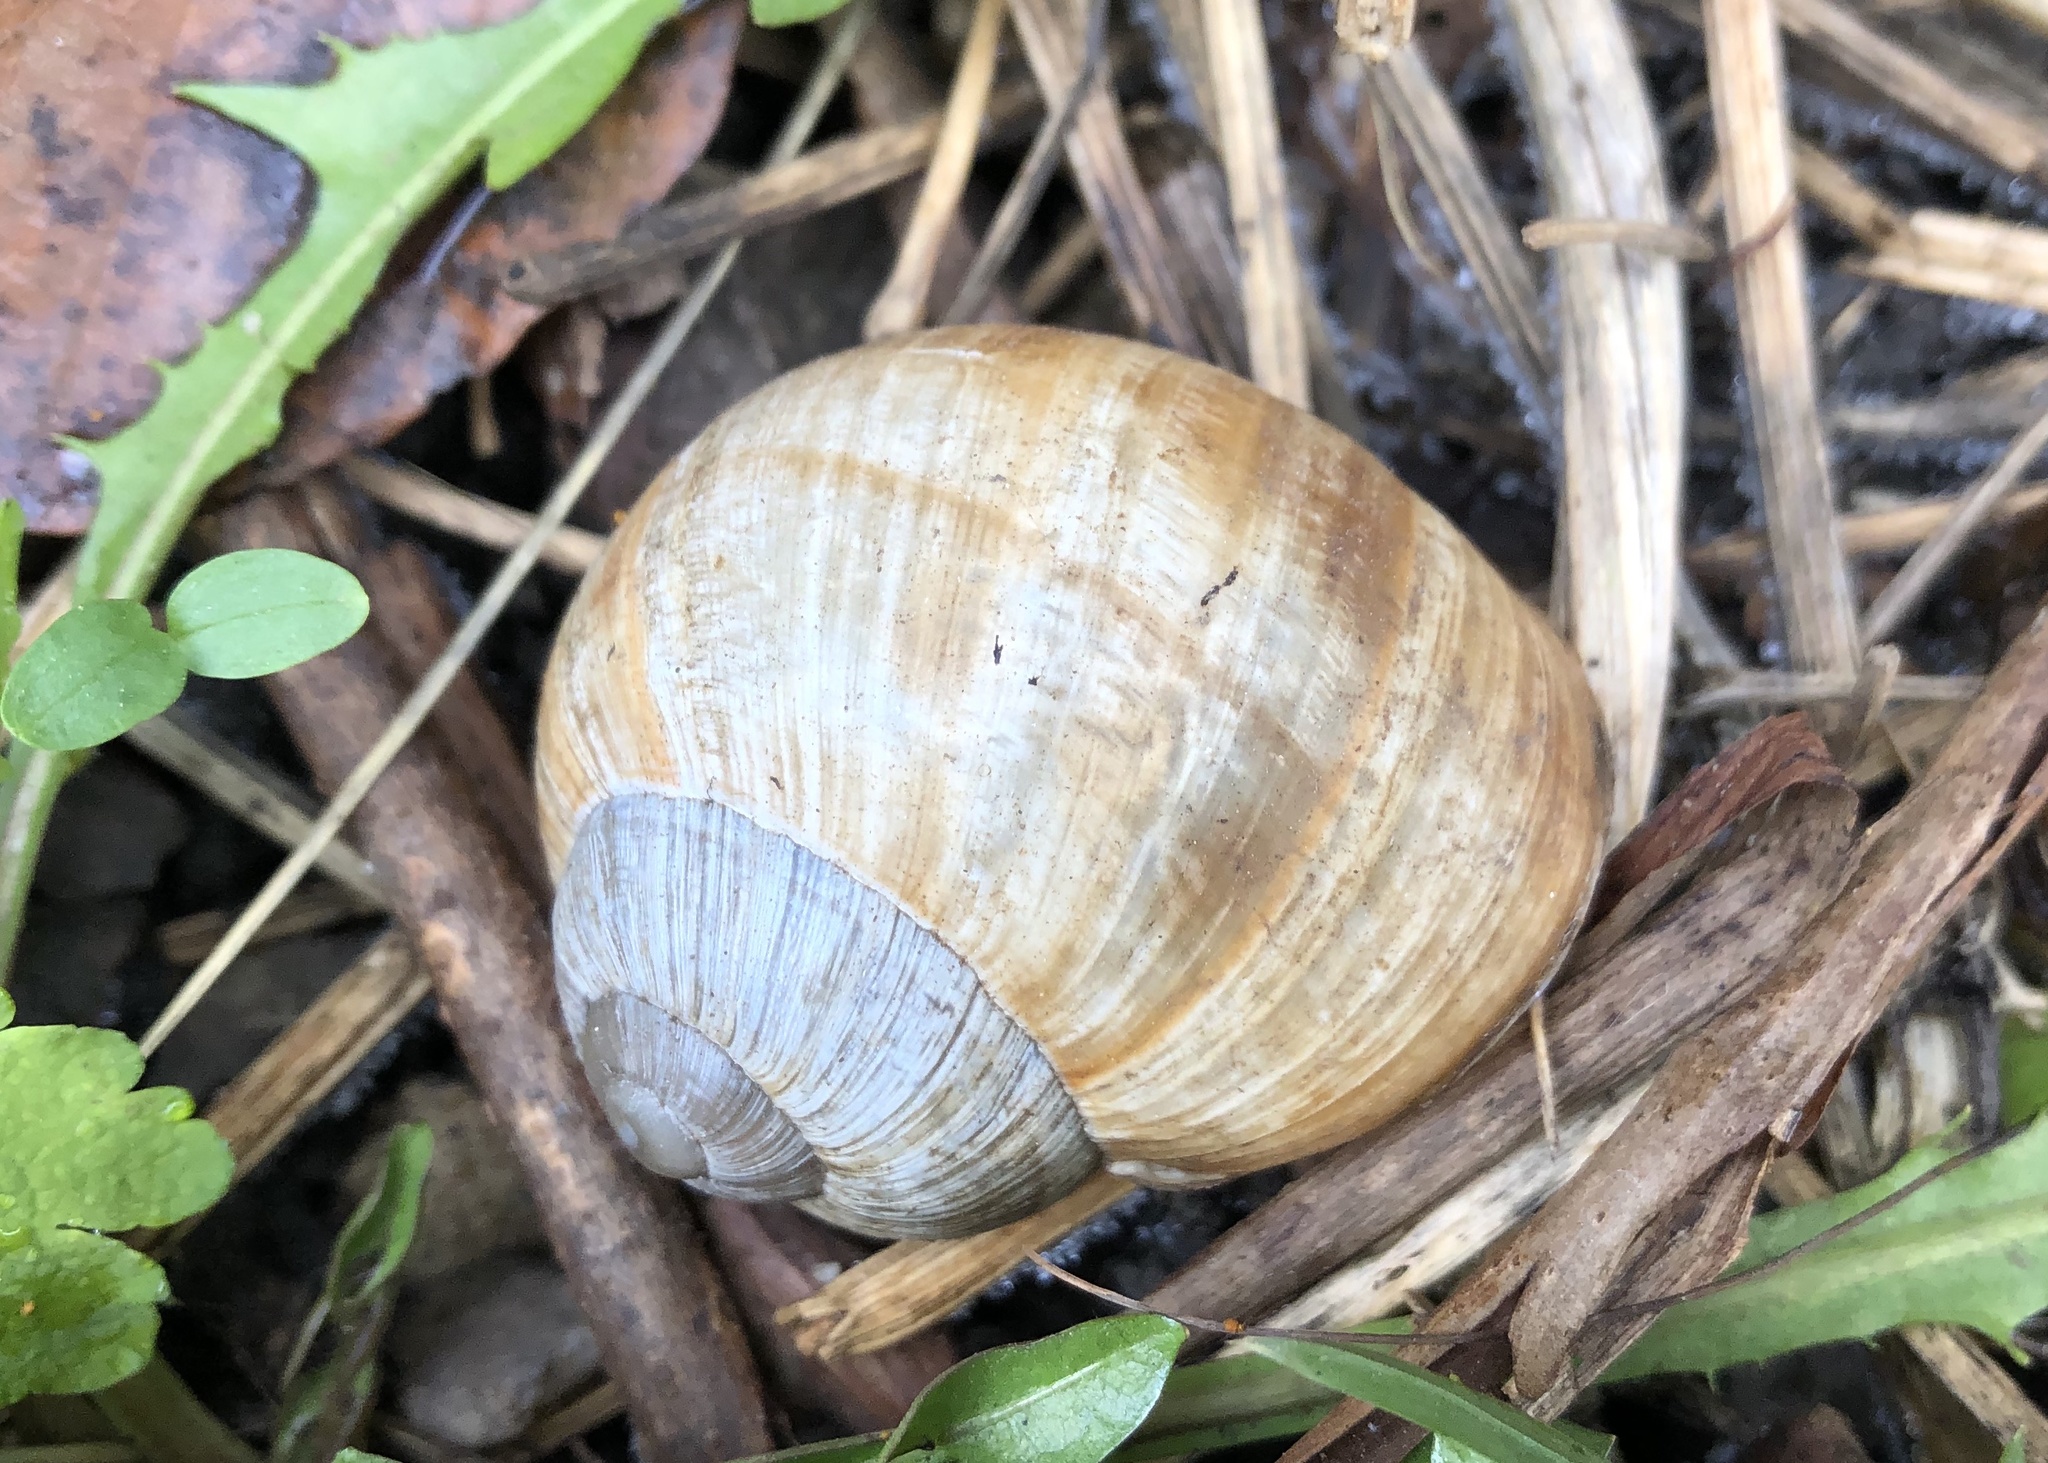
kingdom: Animalia
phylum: Mollusca
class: Gastropoda
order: Stylommatophora
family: Helicidae
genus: Helix
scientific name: Helix pomatia
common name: Roman snail
